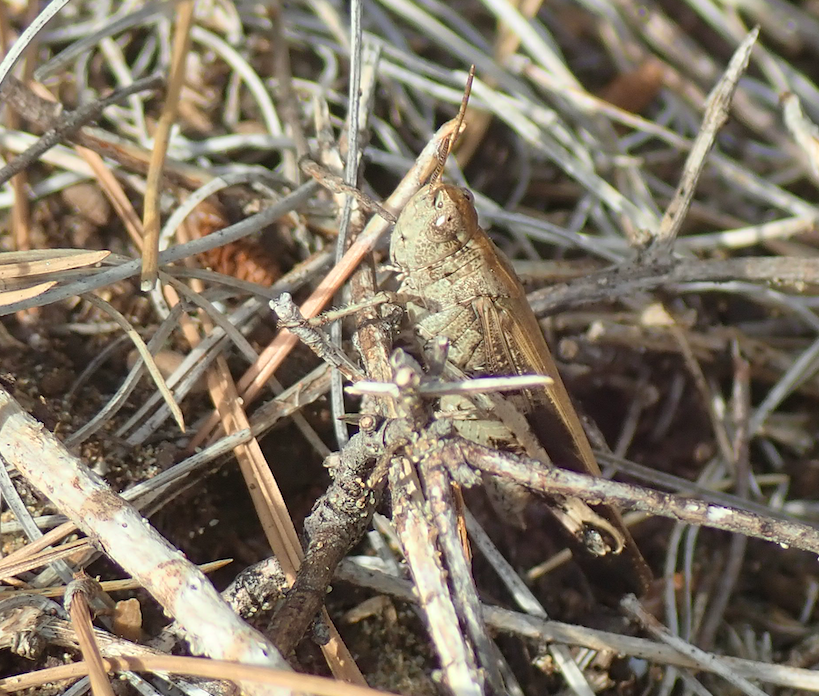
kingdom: Animalia
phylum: Arthropoda
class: Insecta
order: Orthoptera
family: Acrididae
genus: Aiolopus
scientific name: Aiolopus strepens
